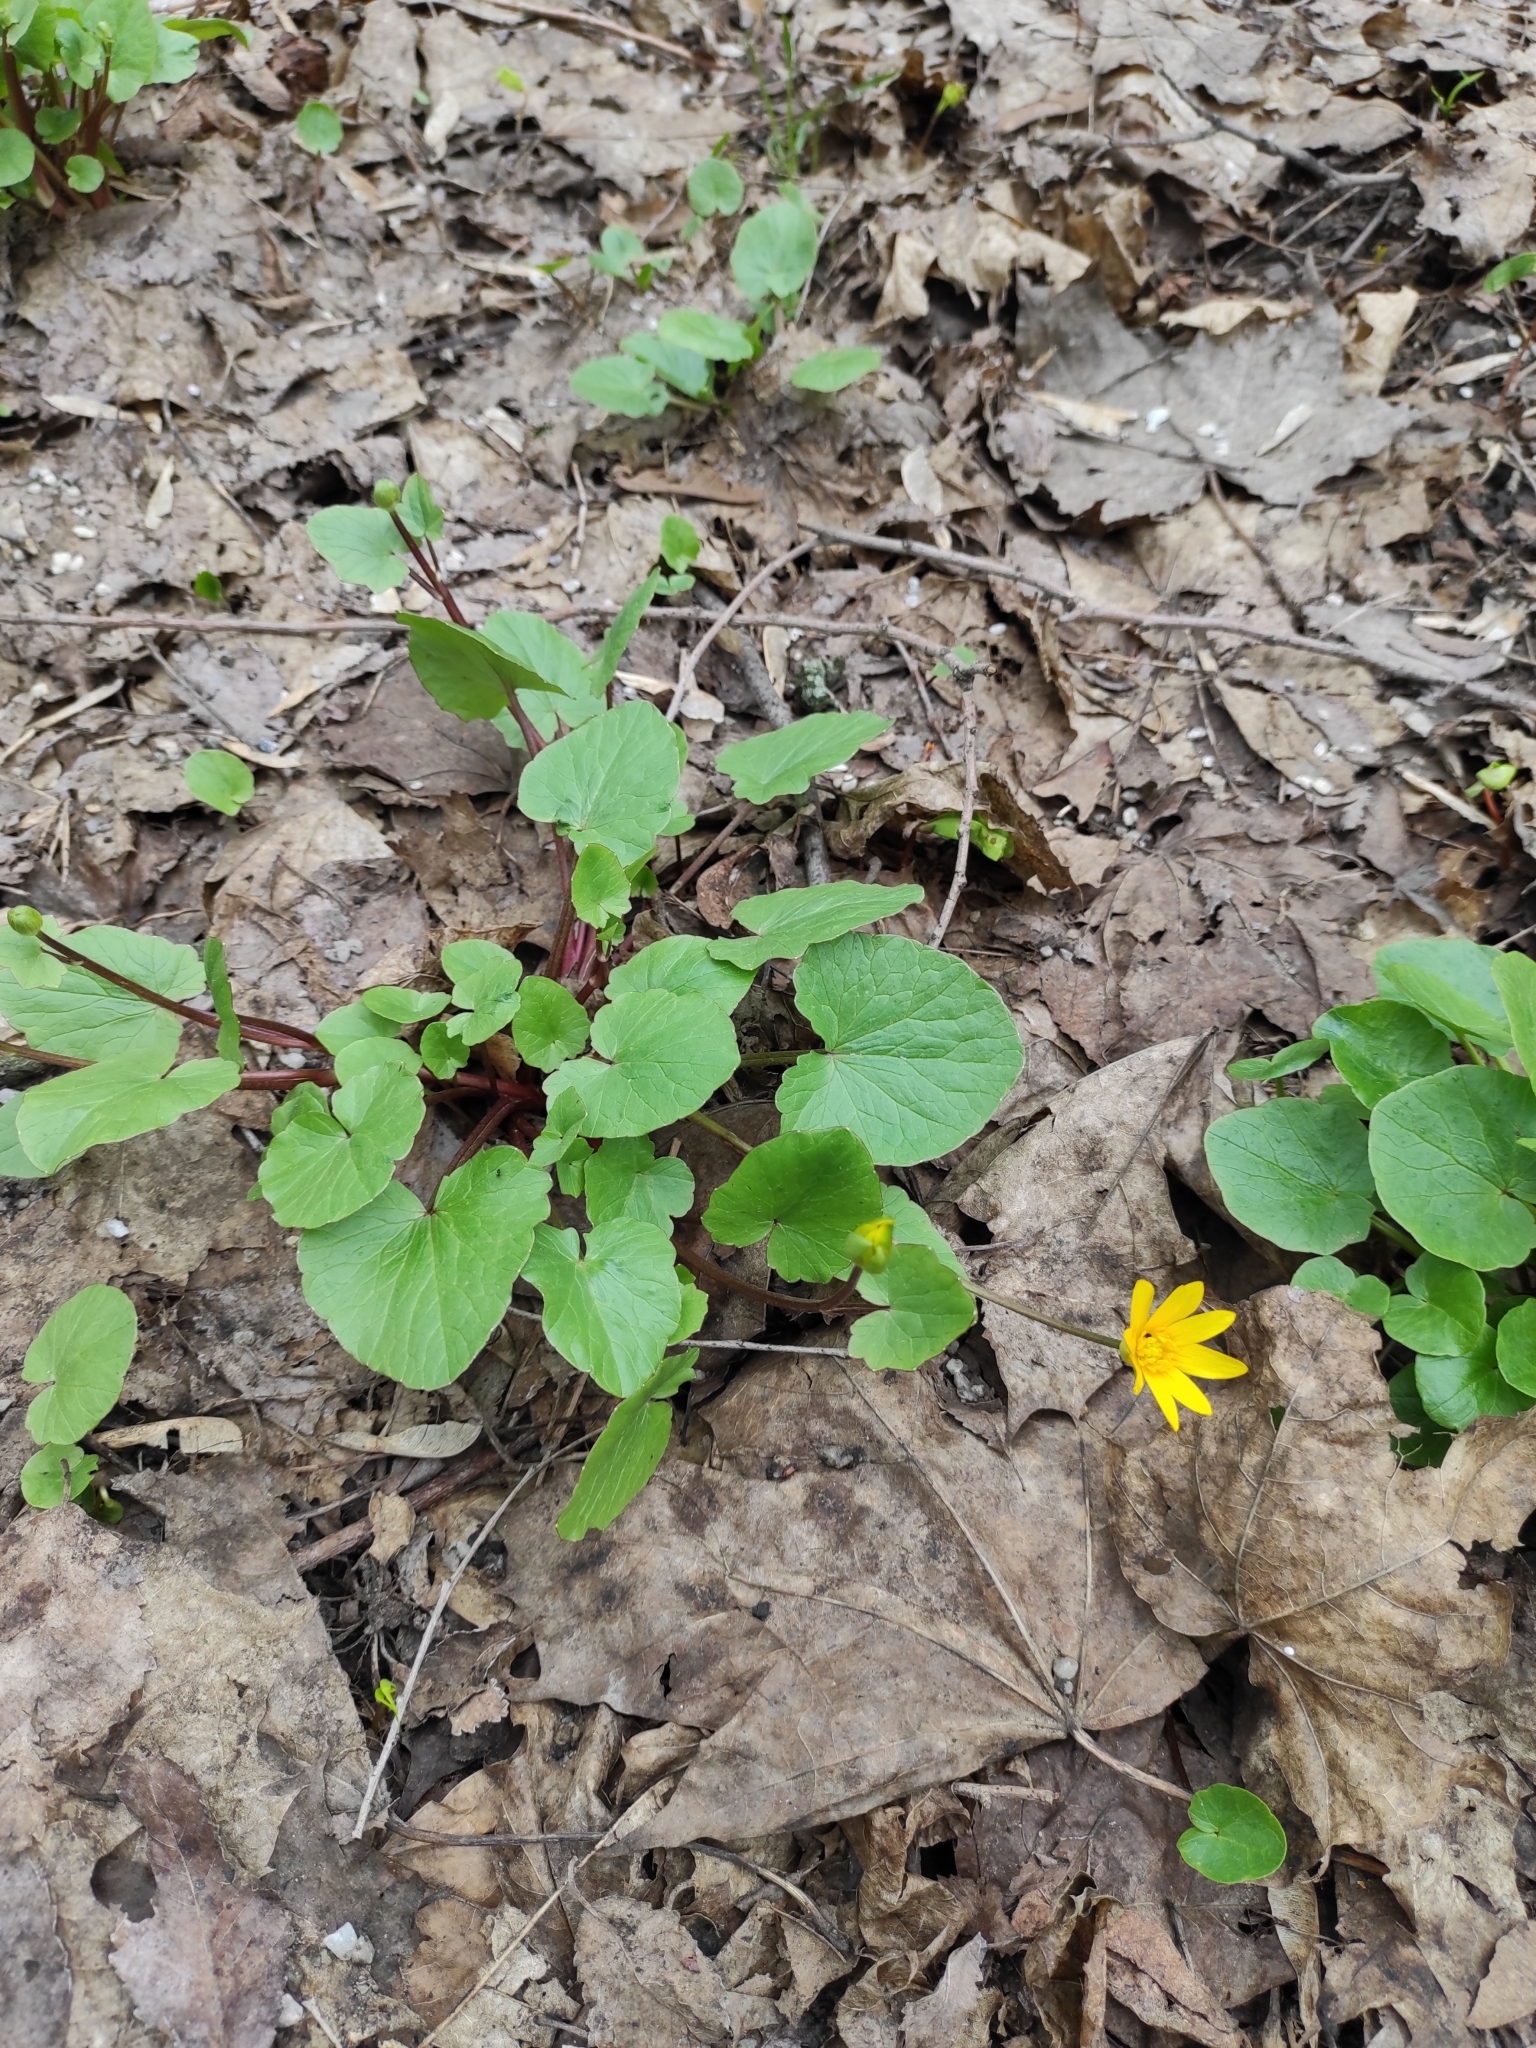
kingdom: Plantae
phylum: Tracheophyta
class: Magnoliopsida
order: Ranunculales
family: Ranunculaceae
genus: Ficaria
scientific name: Ficaria verna
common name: Lesser celandine
